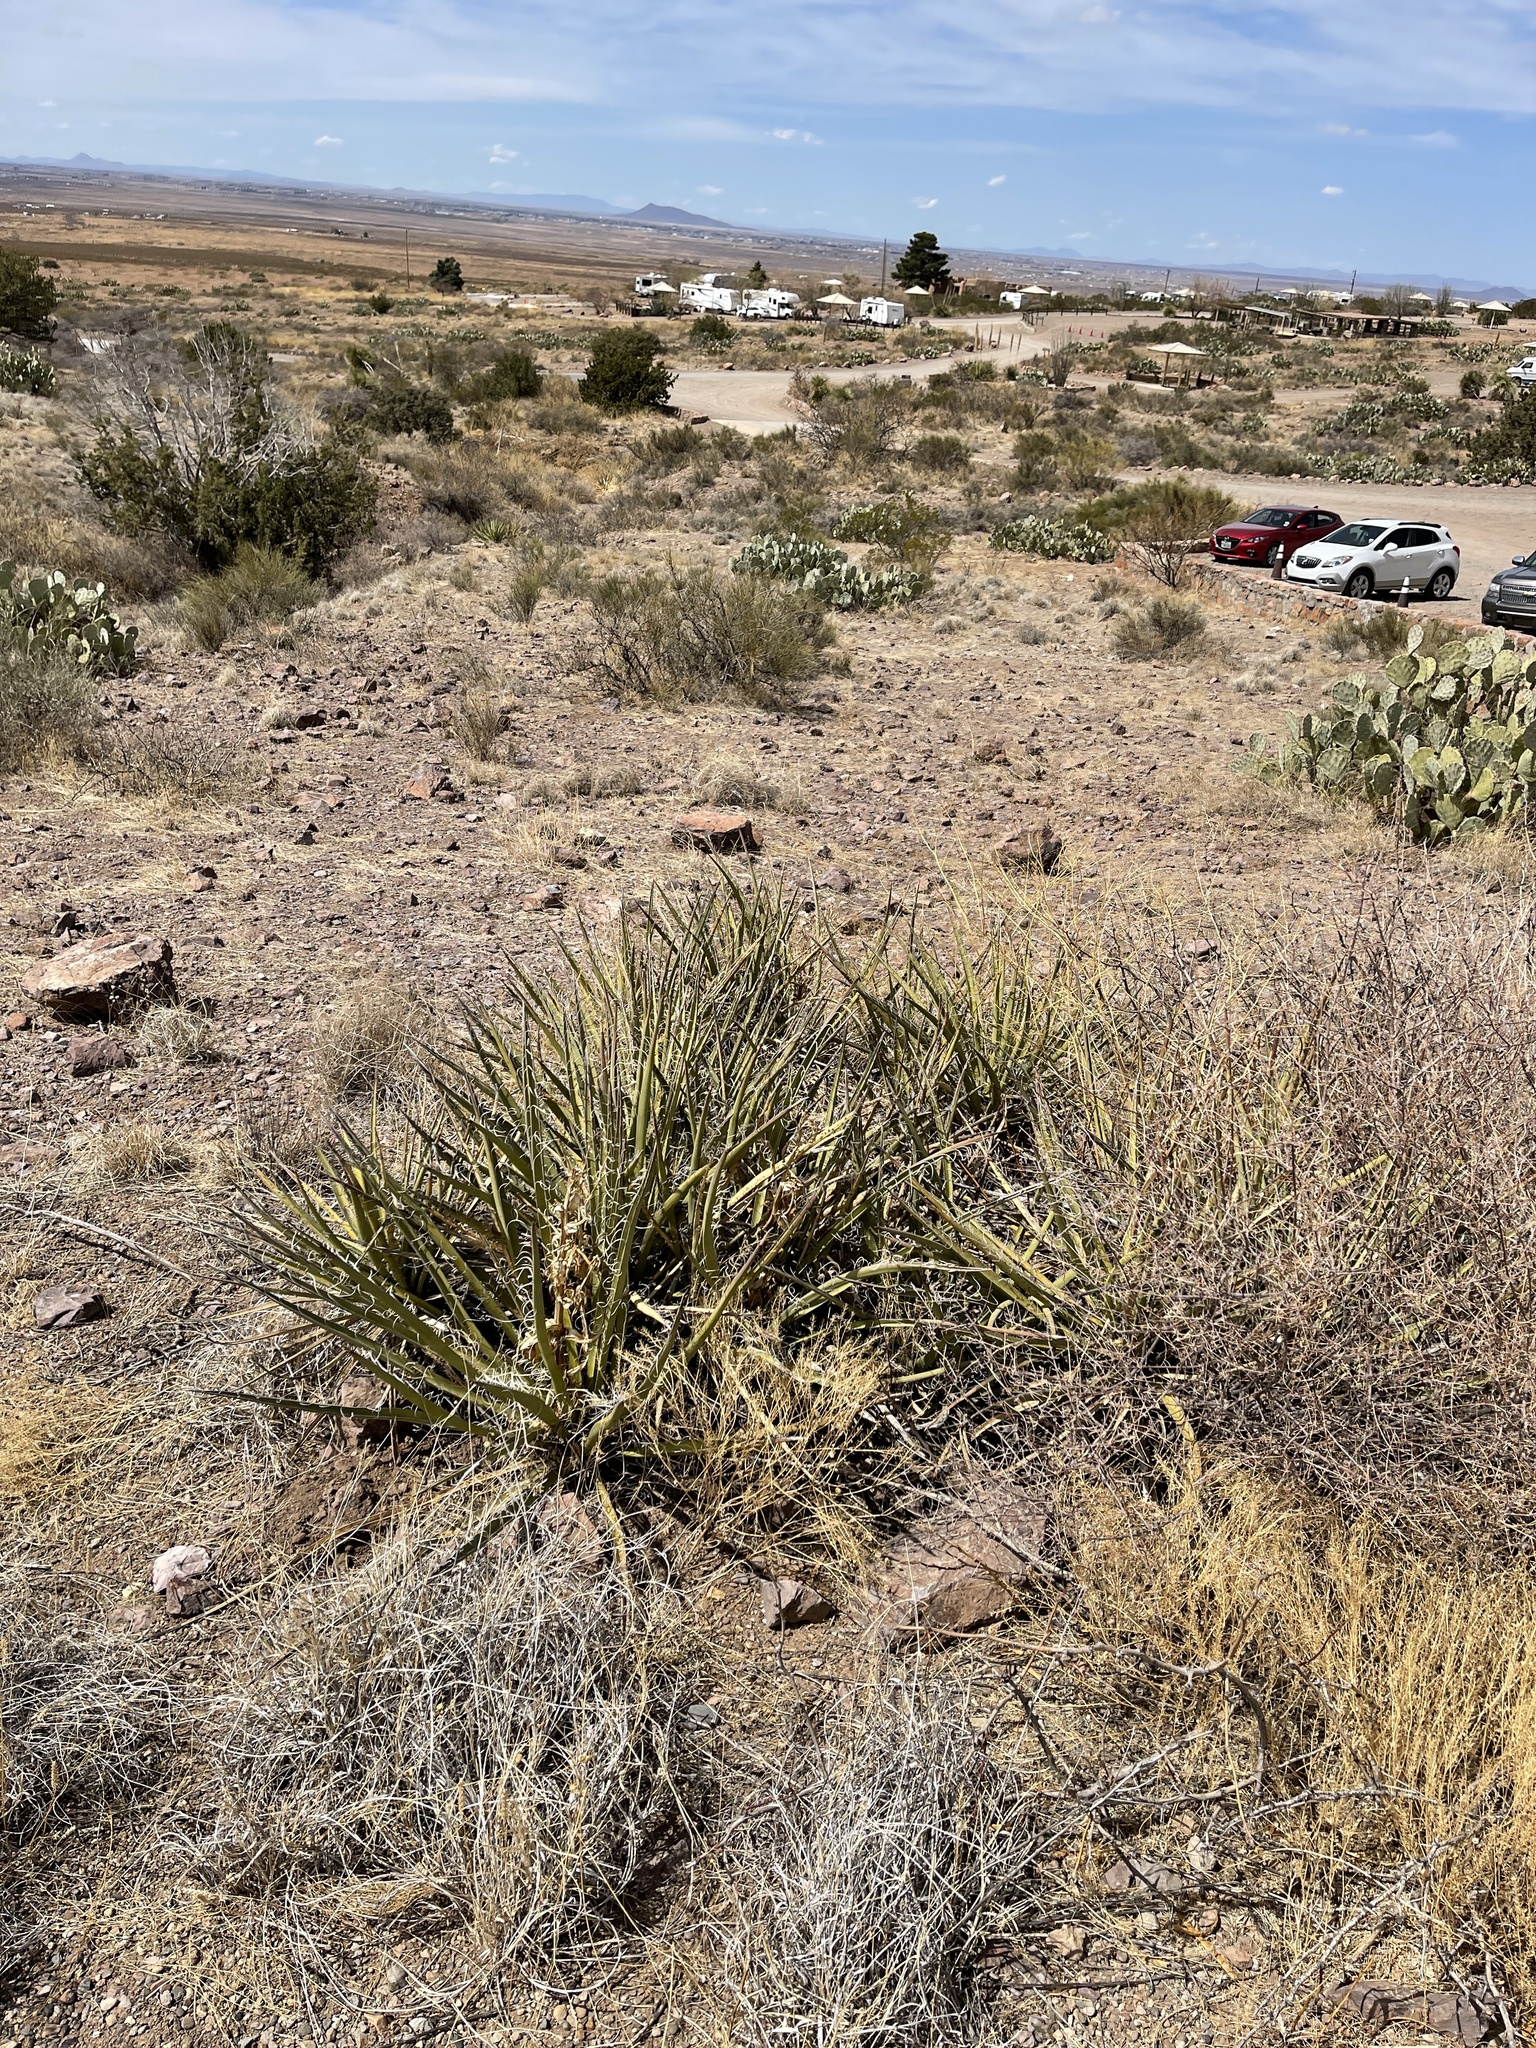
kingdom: Plantae
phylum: Tracheophyta
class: Liliopsida
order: Asparagales
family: Asparagaceae
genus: Yucca
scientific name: Yucca baccata
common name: Banana yucca
